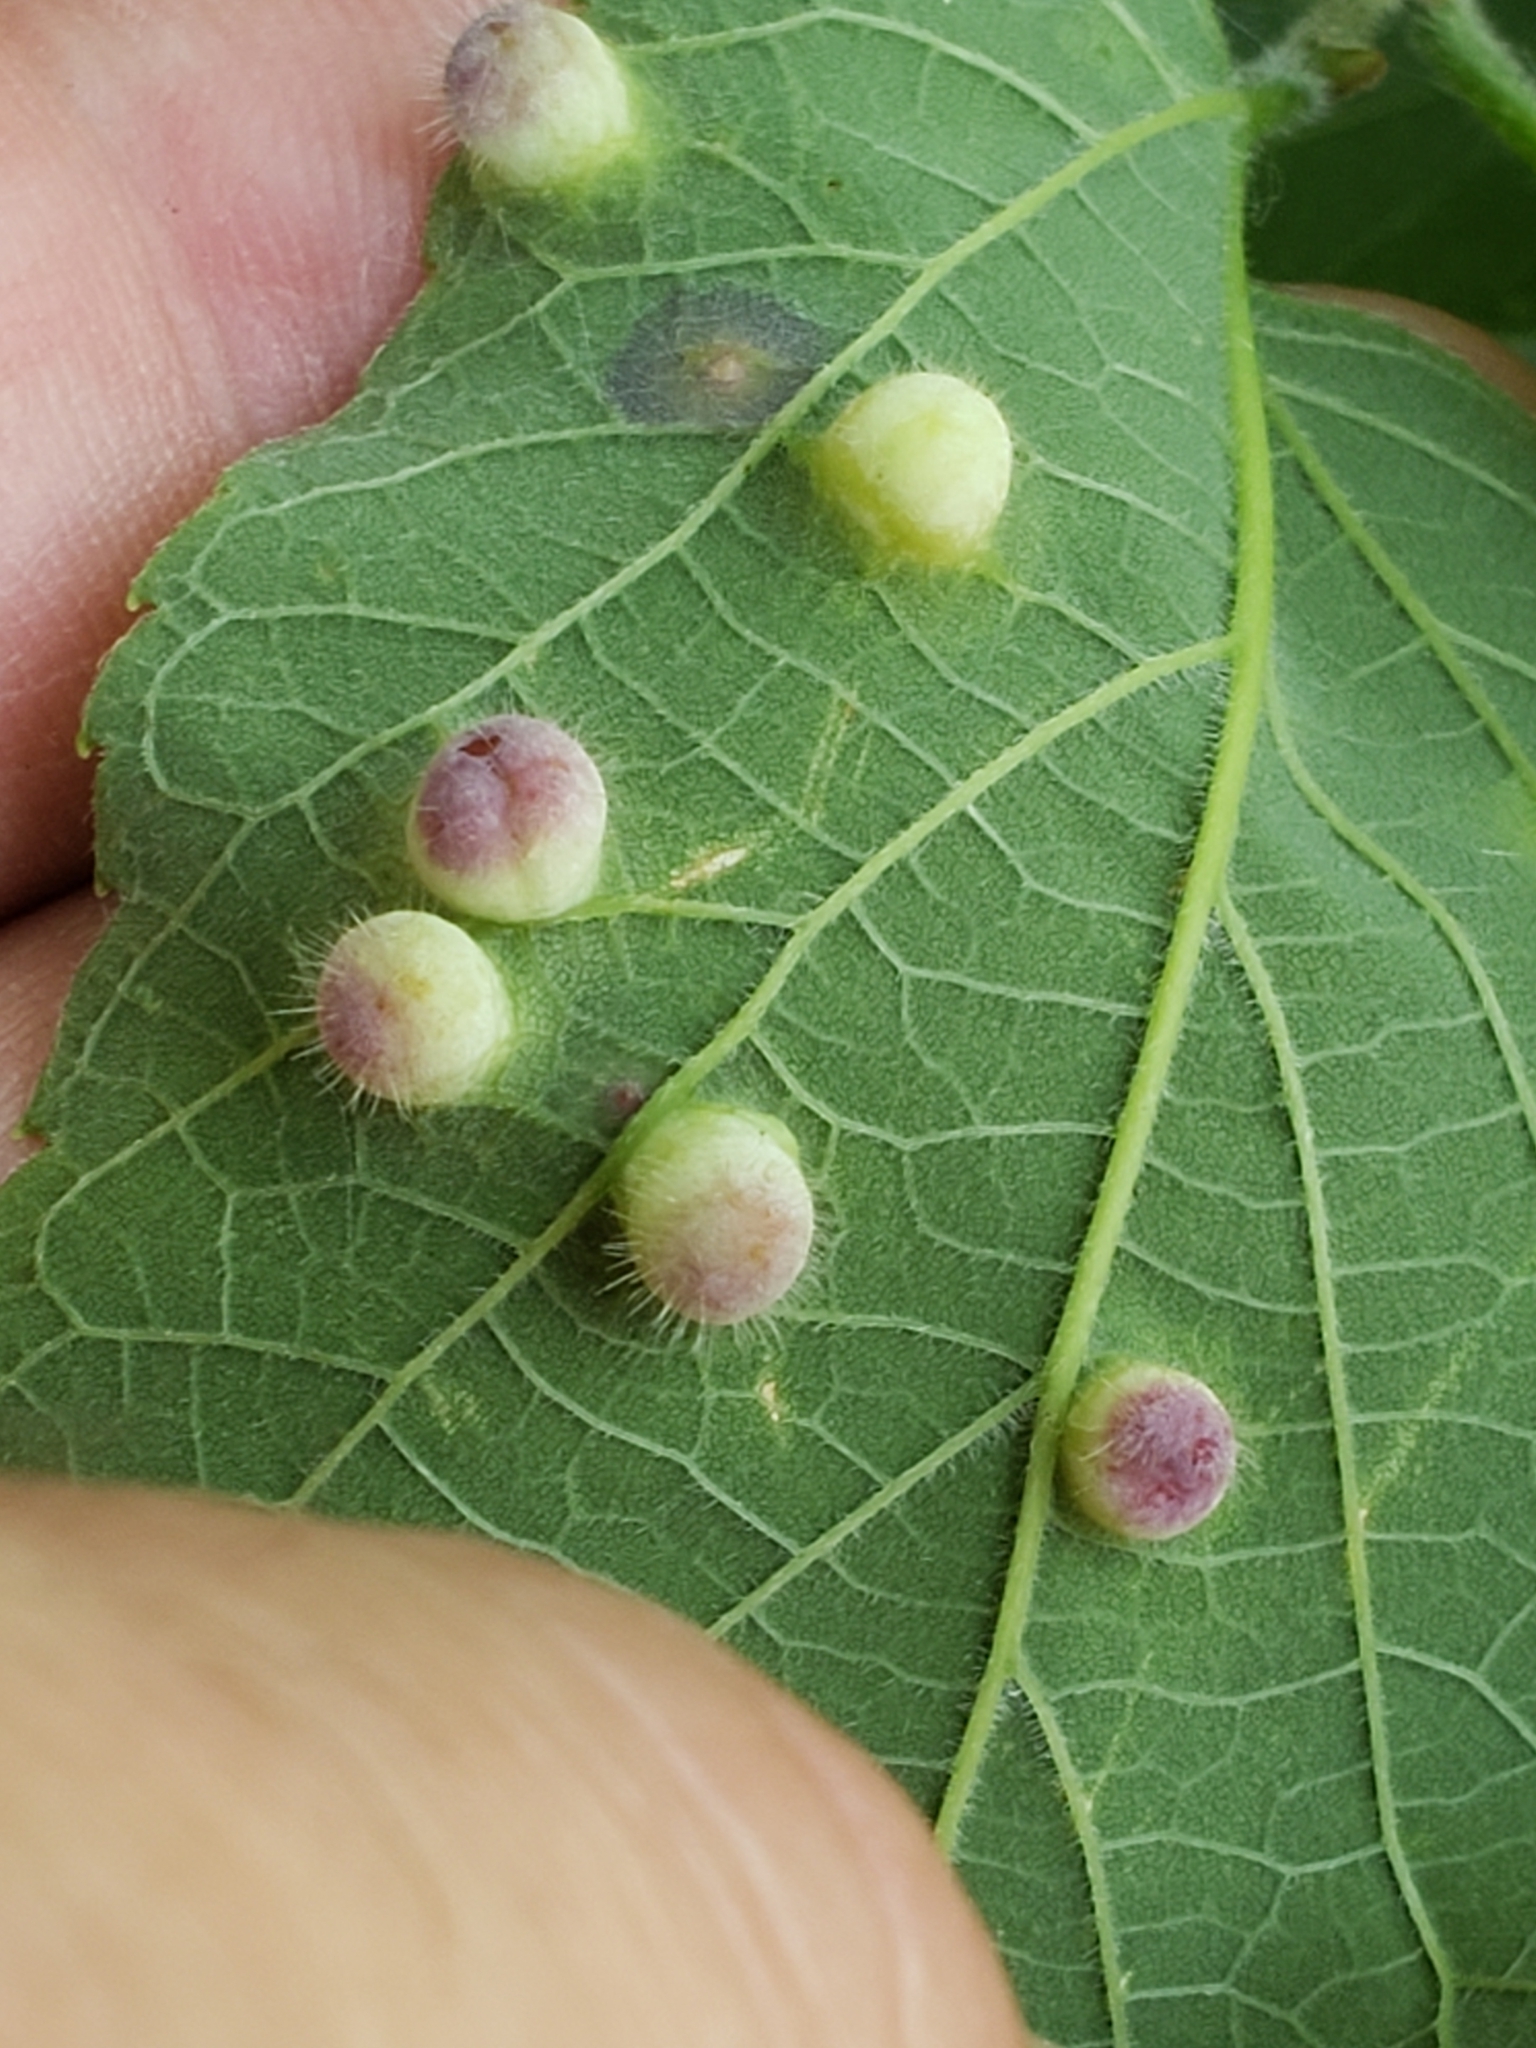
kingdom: Animalia
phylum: Arthropoda
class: Insecta
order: Hemiptera
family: Aphalaridae
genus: Pachypsylla
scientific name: Pachypsylla celtidismamma
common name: Hackberry nipplegall psyllid
